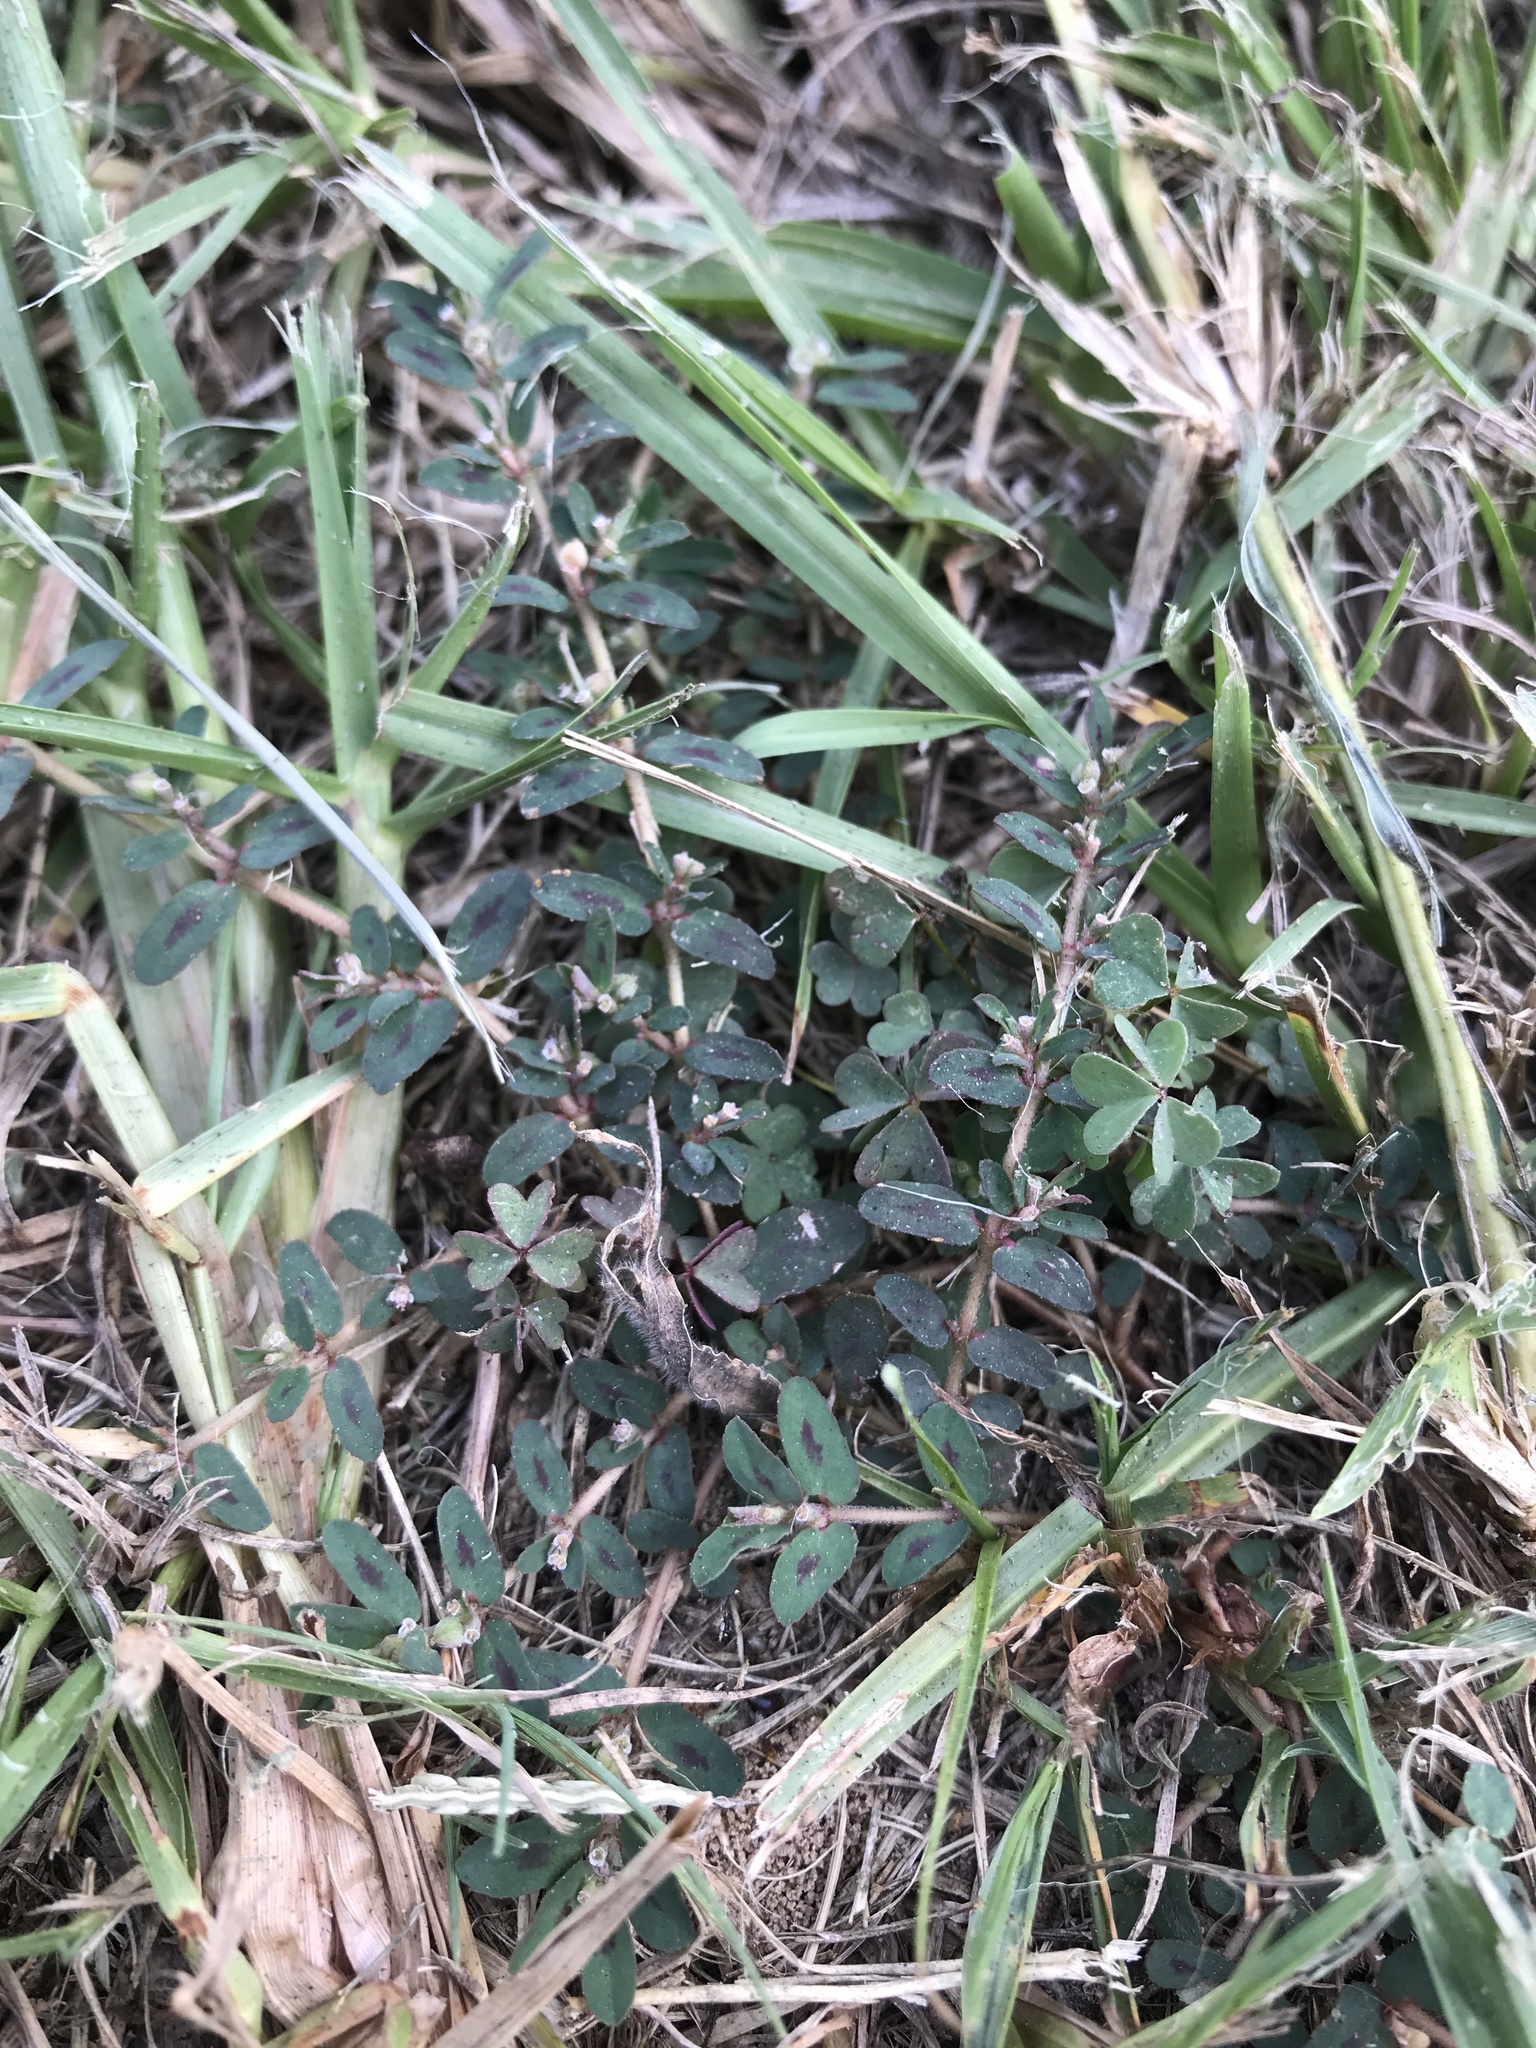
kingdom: Plantae
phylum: Tracheophyta
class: Magnoliopsida
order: Malpighiales
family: Euphorbiaceae
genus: Euphorbia
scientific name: Euphorbia maculata
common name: Spotted spurge
